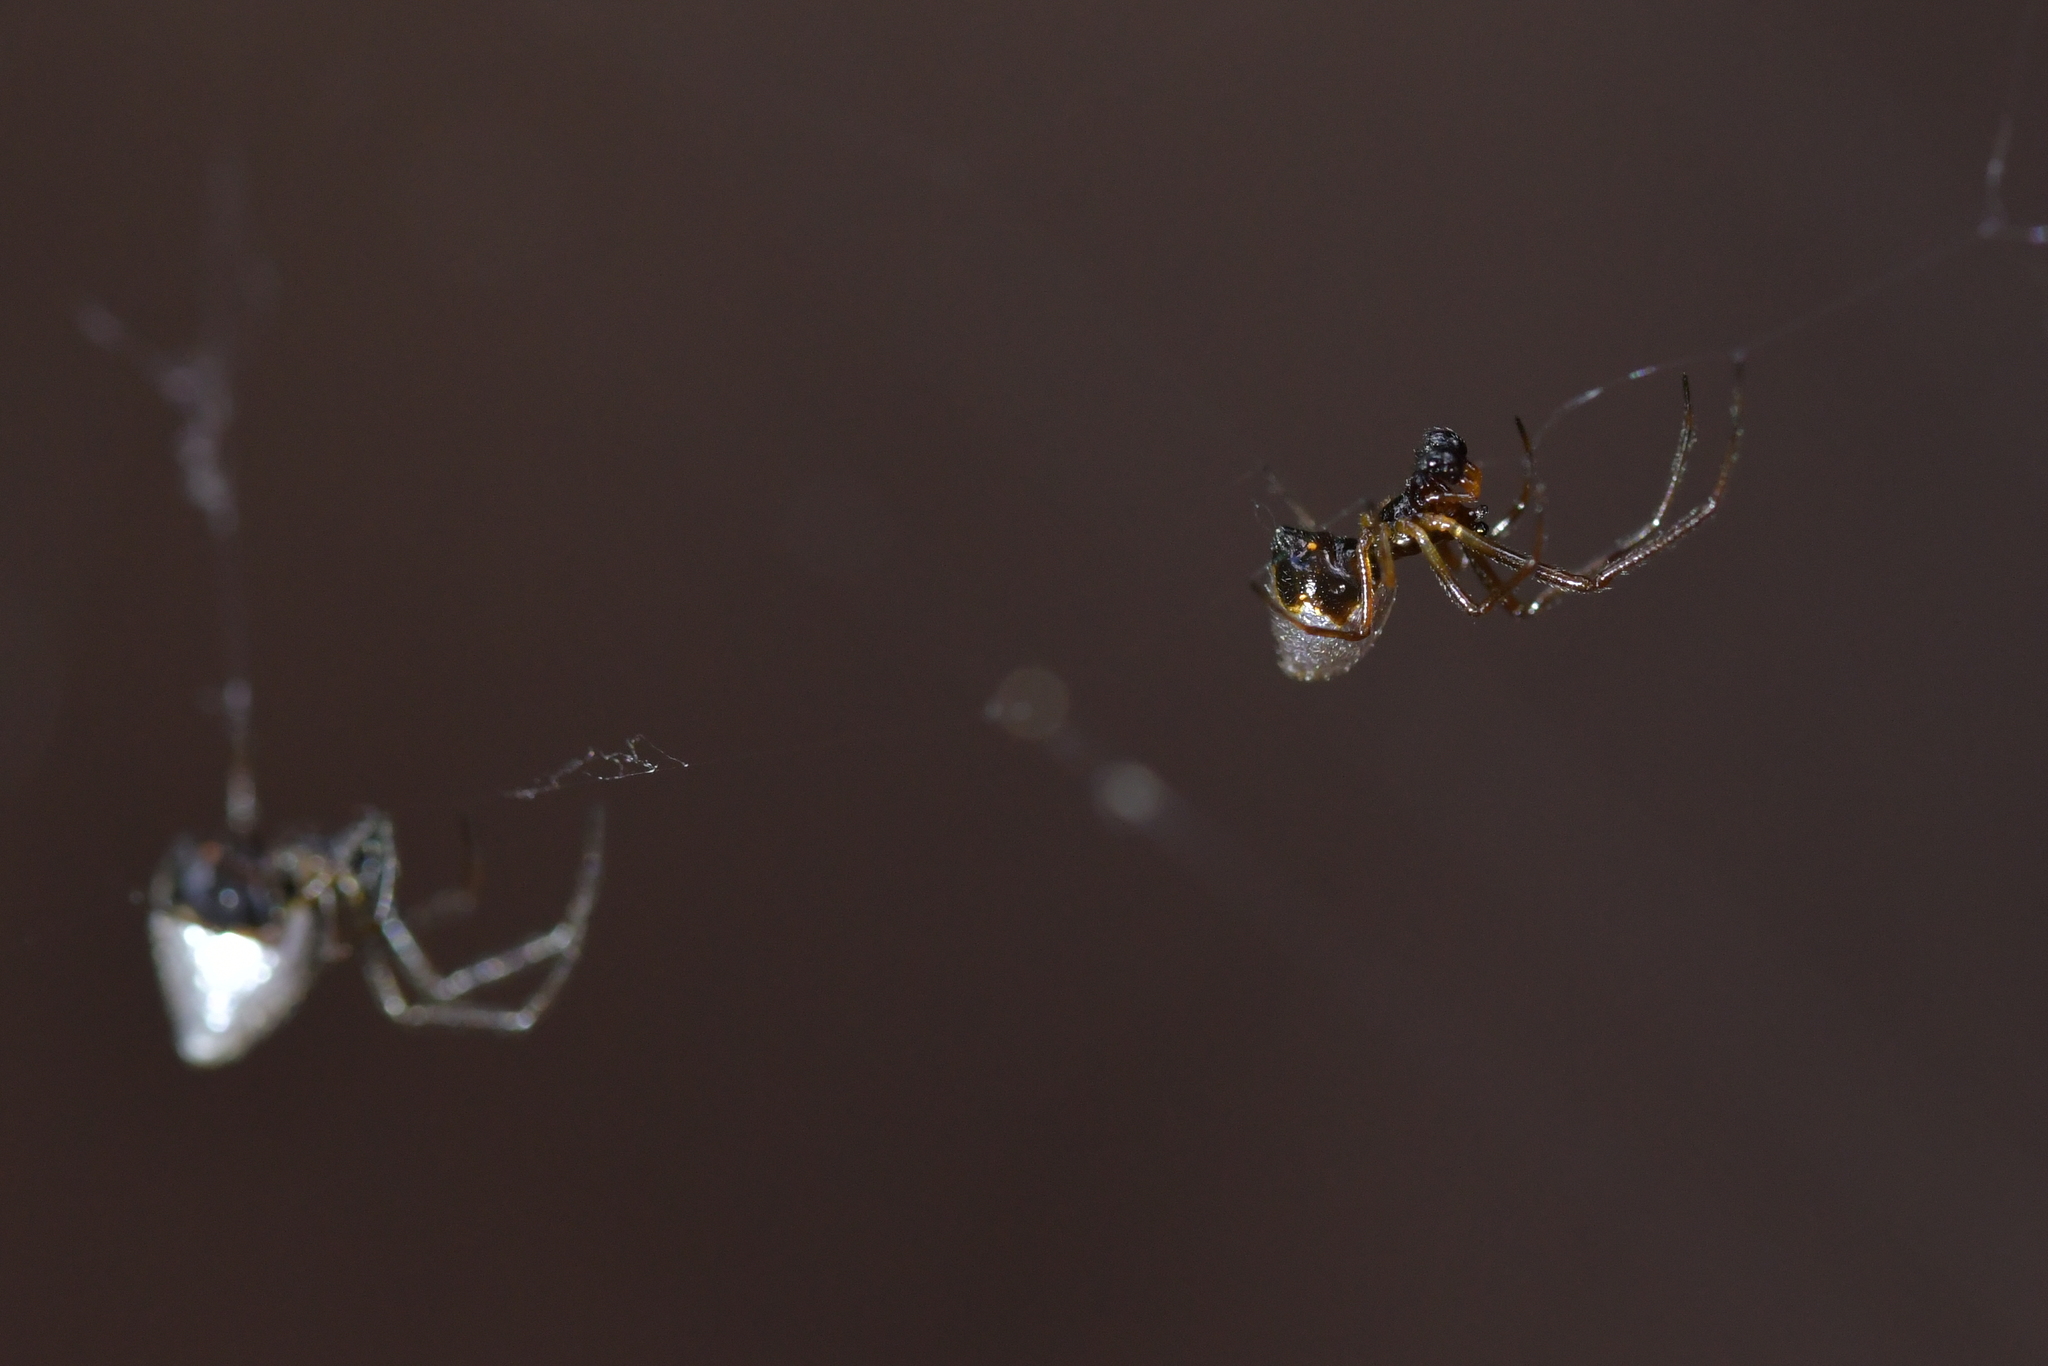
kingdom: Animalia
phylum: Arthropoda
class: Arachnida
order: Araneae
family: Theridiidae
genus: Argyrodes
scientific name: Argyrodes antipodianus
